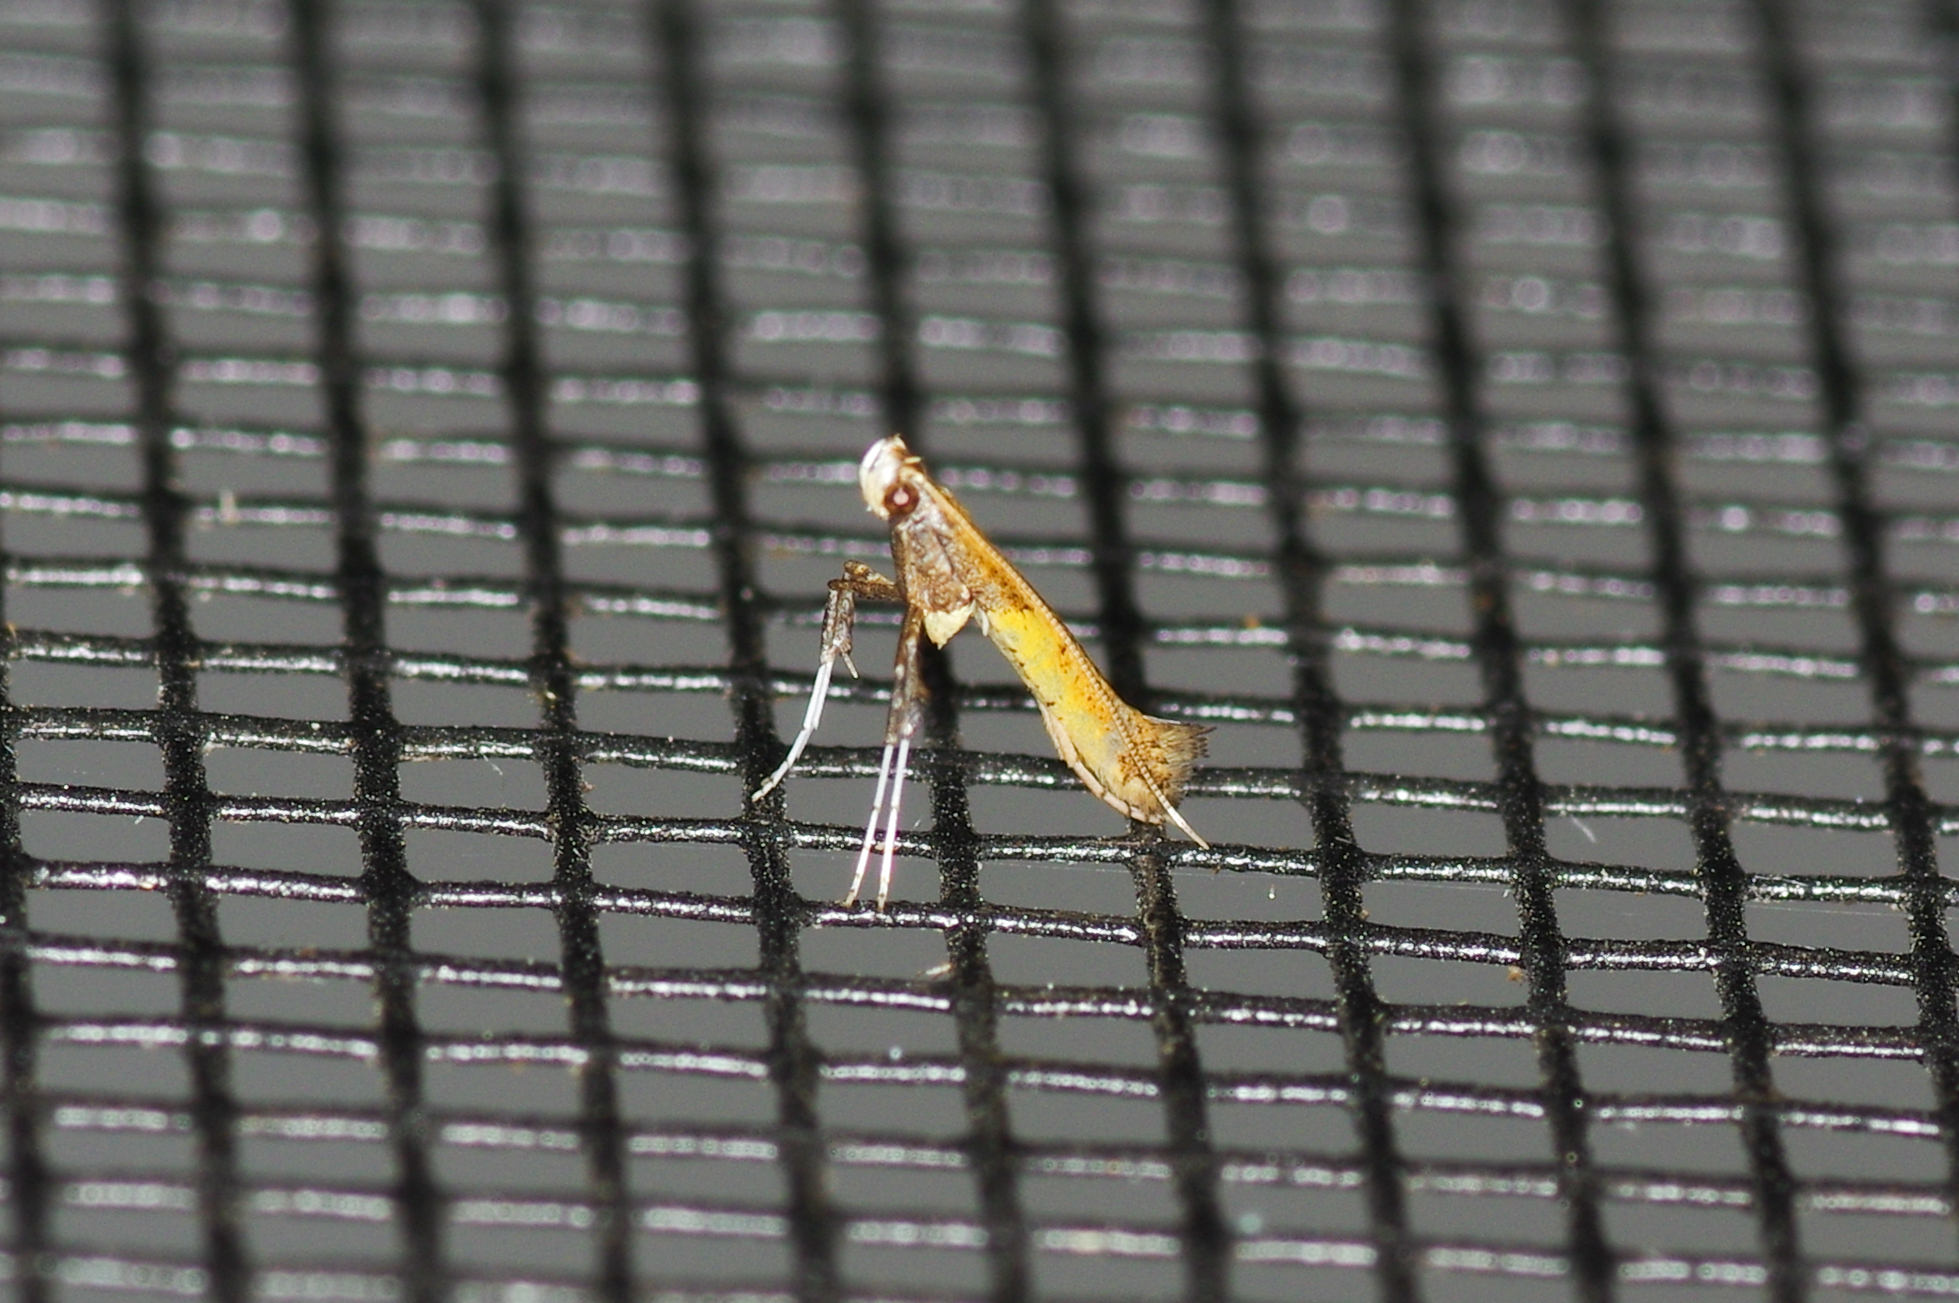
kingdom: Animalia
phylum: Arthropoda
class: Insecta
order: Lepidoptera
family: Gracillariidae
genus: Caloptilia
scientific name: Caloptilia azaleella
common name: Azalea leafminer
